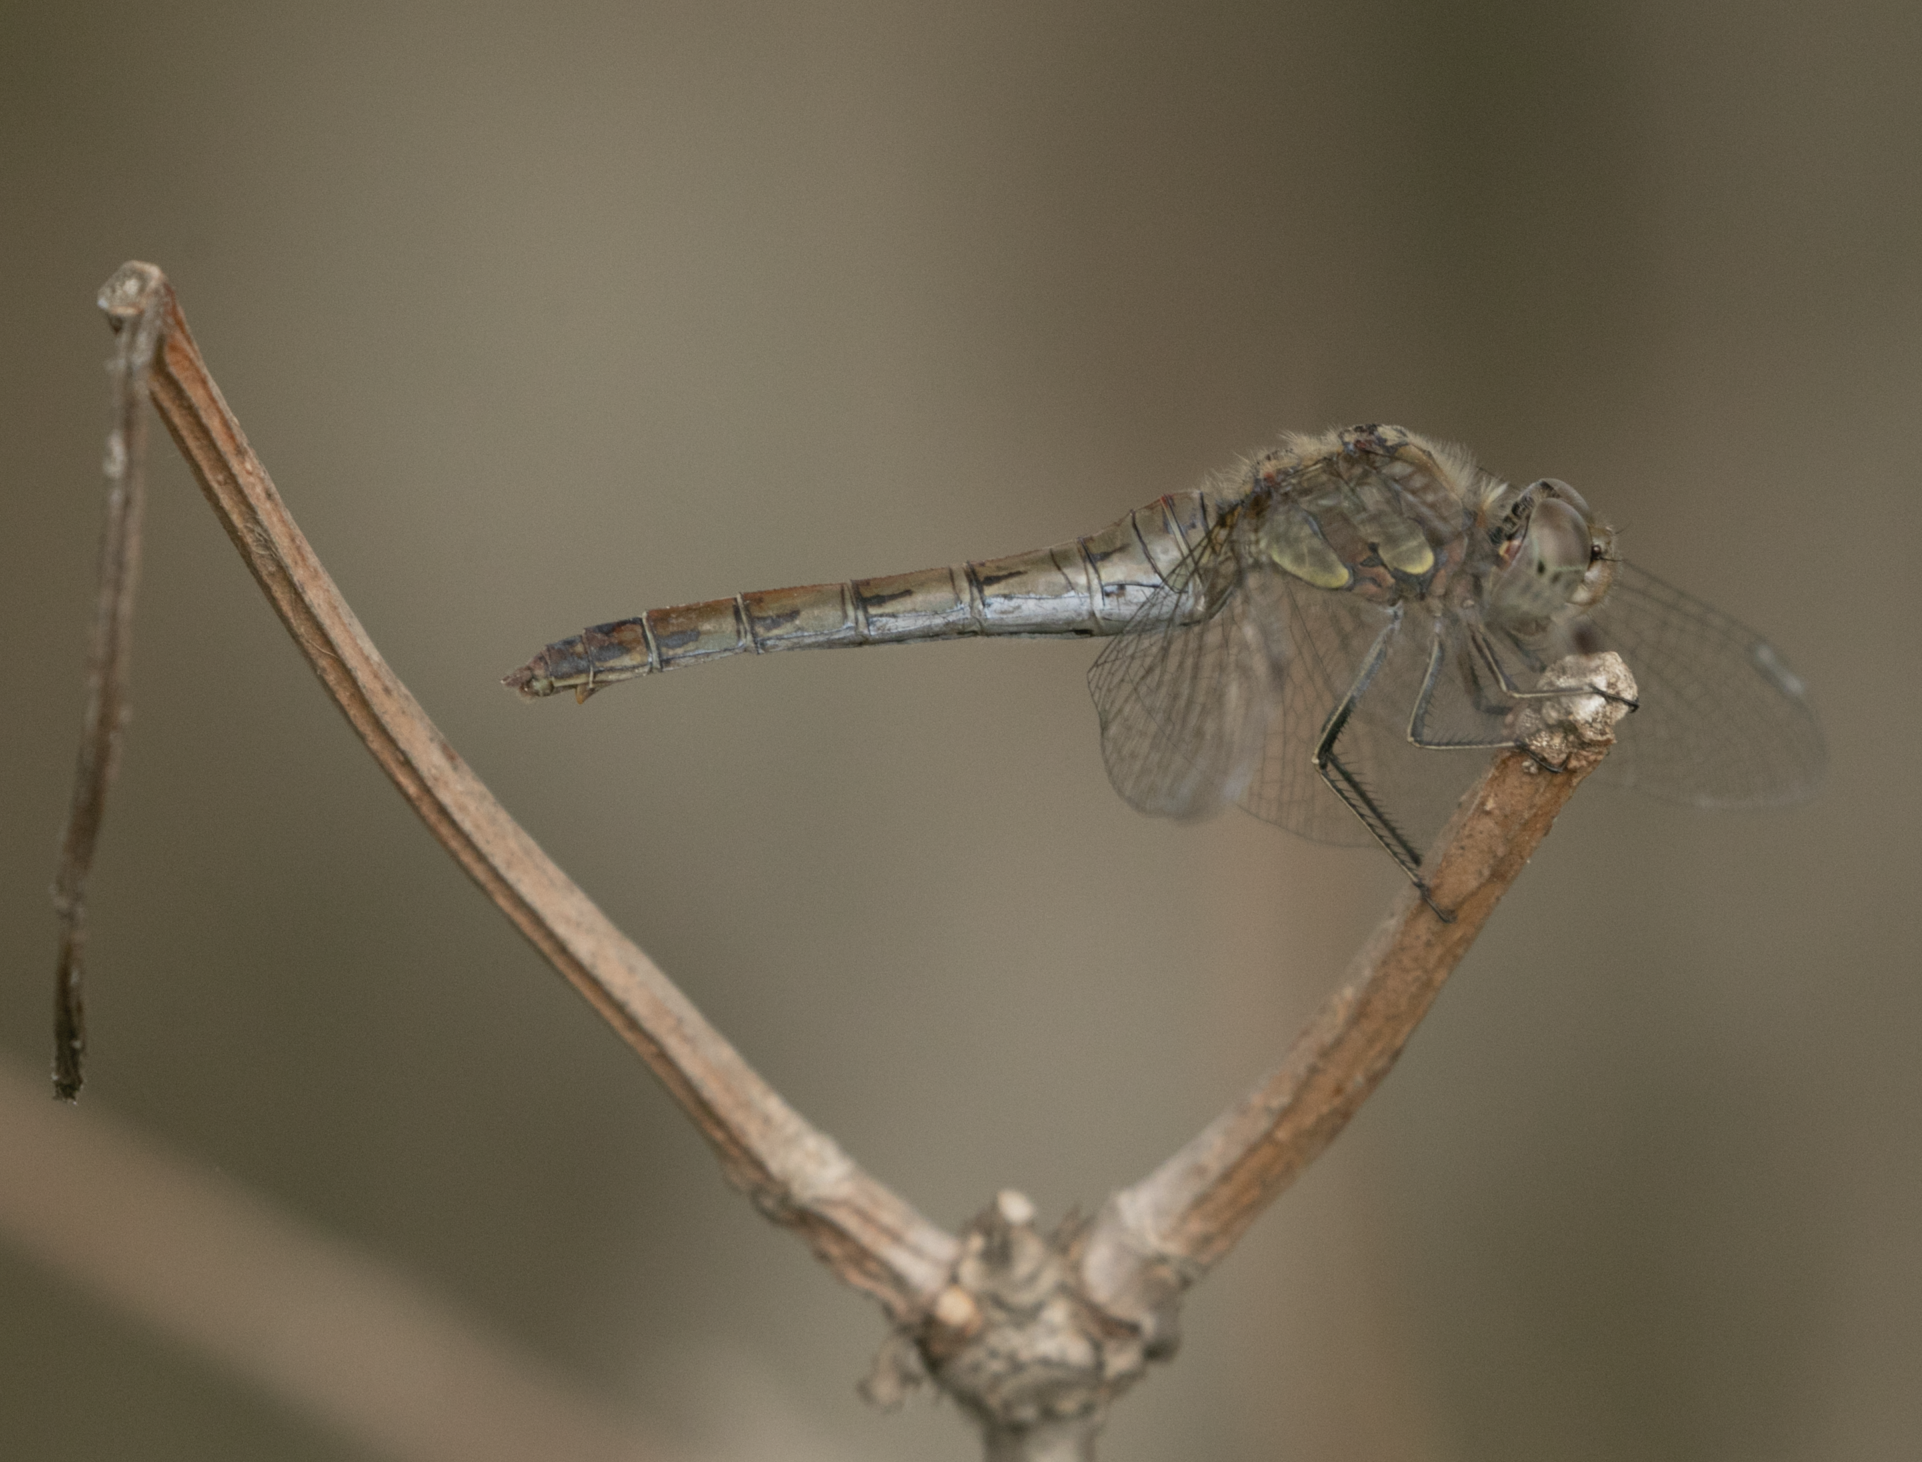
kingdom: Animalia
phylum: Arthropoda
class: Insecta
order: Odonata
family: Libellulidae
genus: Sympetrum
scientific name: Sympetrum striolatum
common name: Common darter
